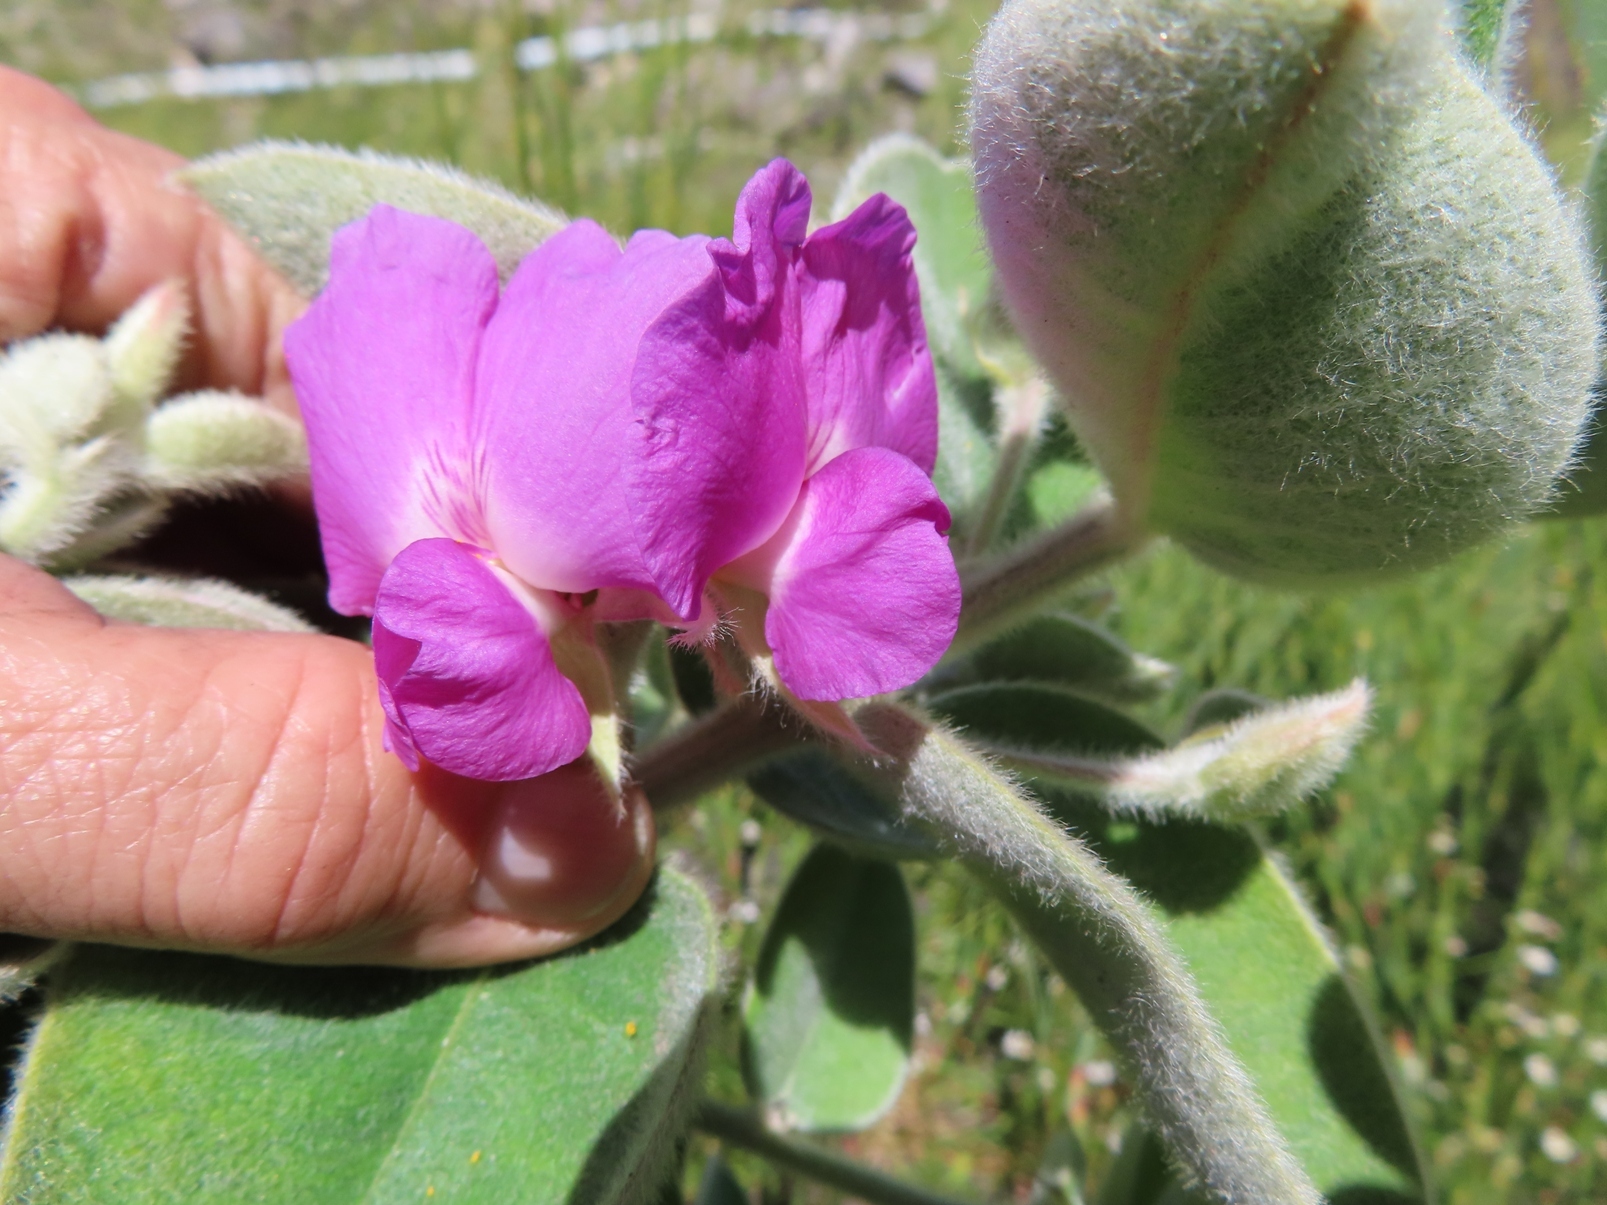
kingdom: Plantae
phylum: Tracheophyta
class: Magnoliopsida
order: Fabales
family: Fabaceae
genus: Podalyria
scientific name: Podalyria cordata
